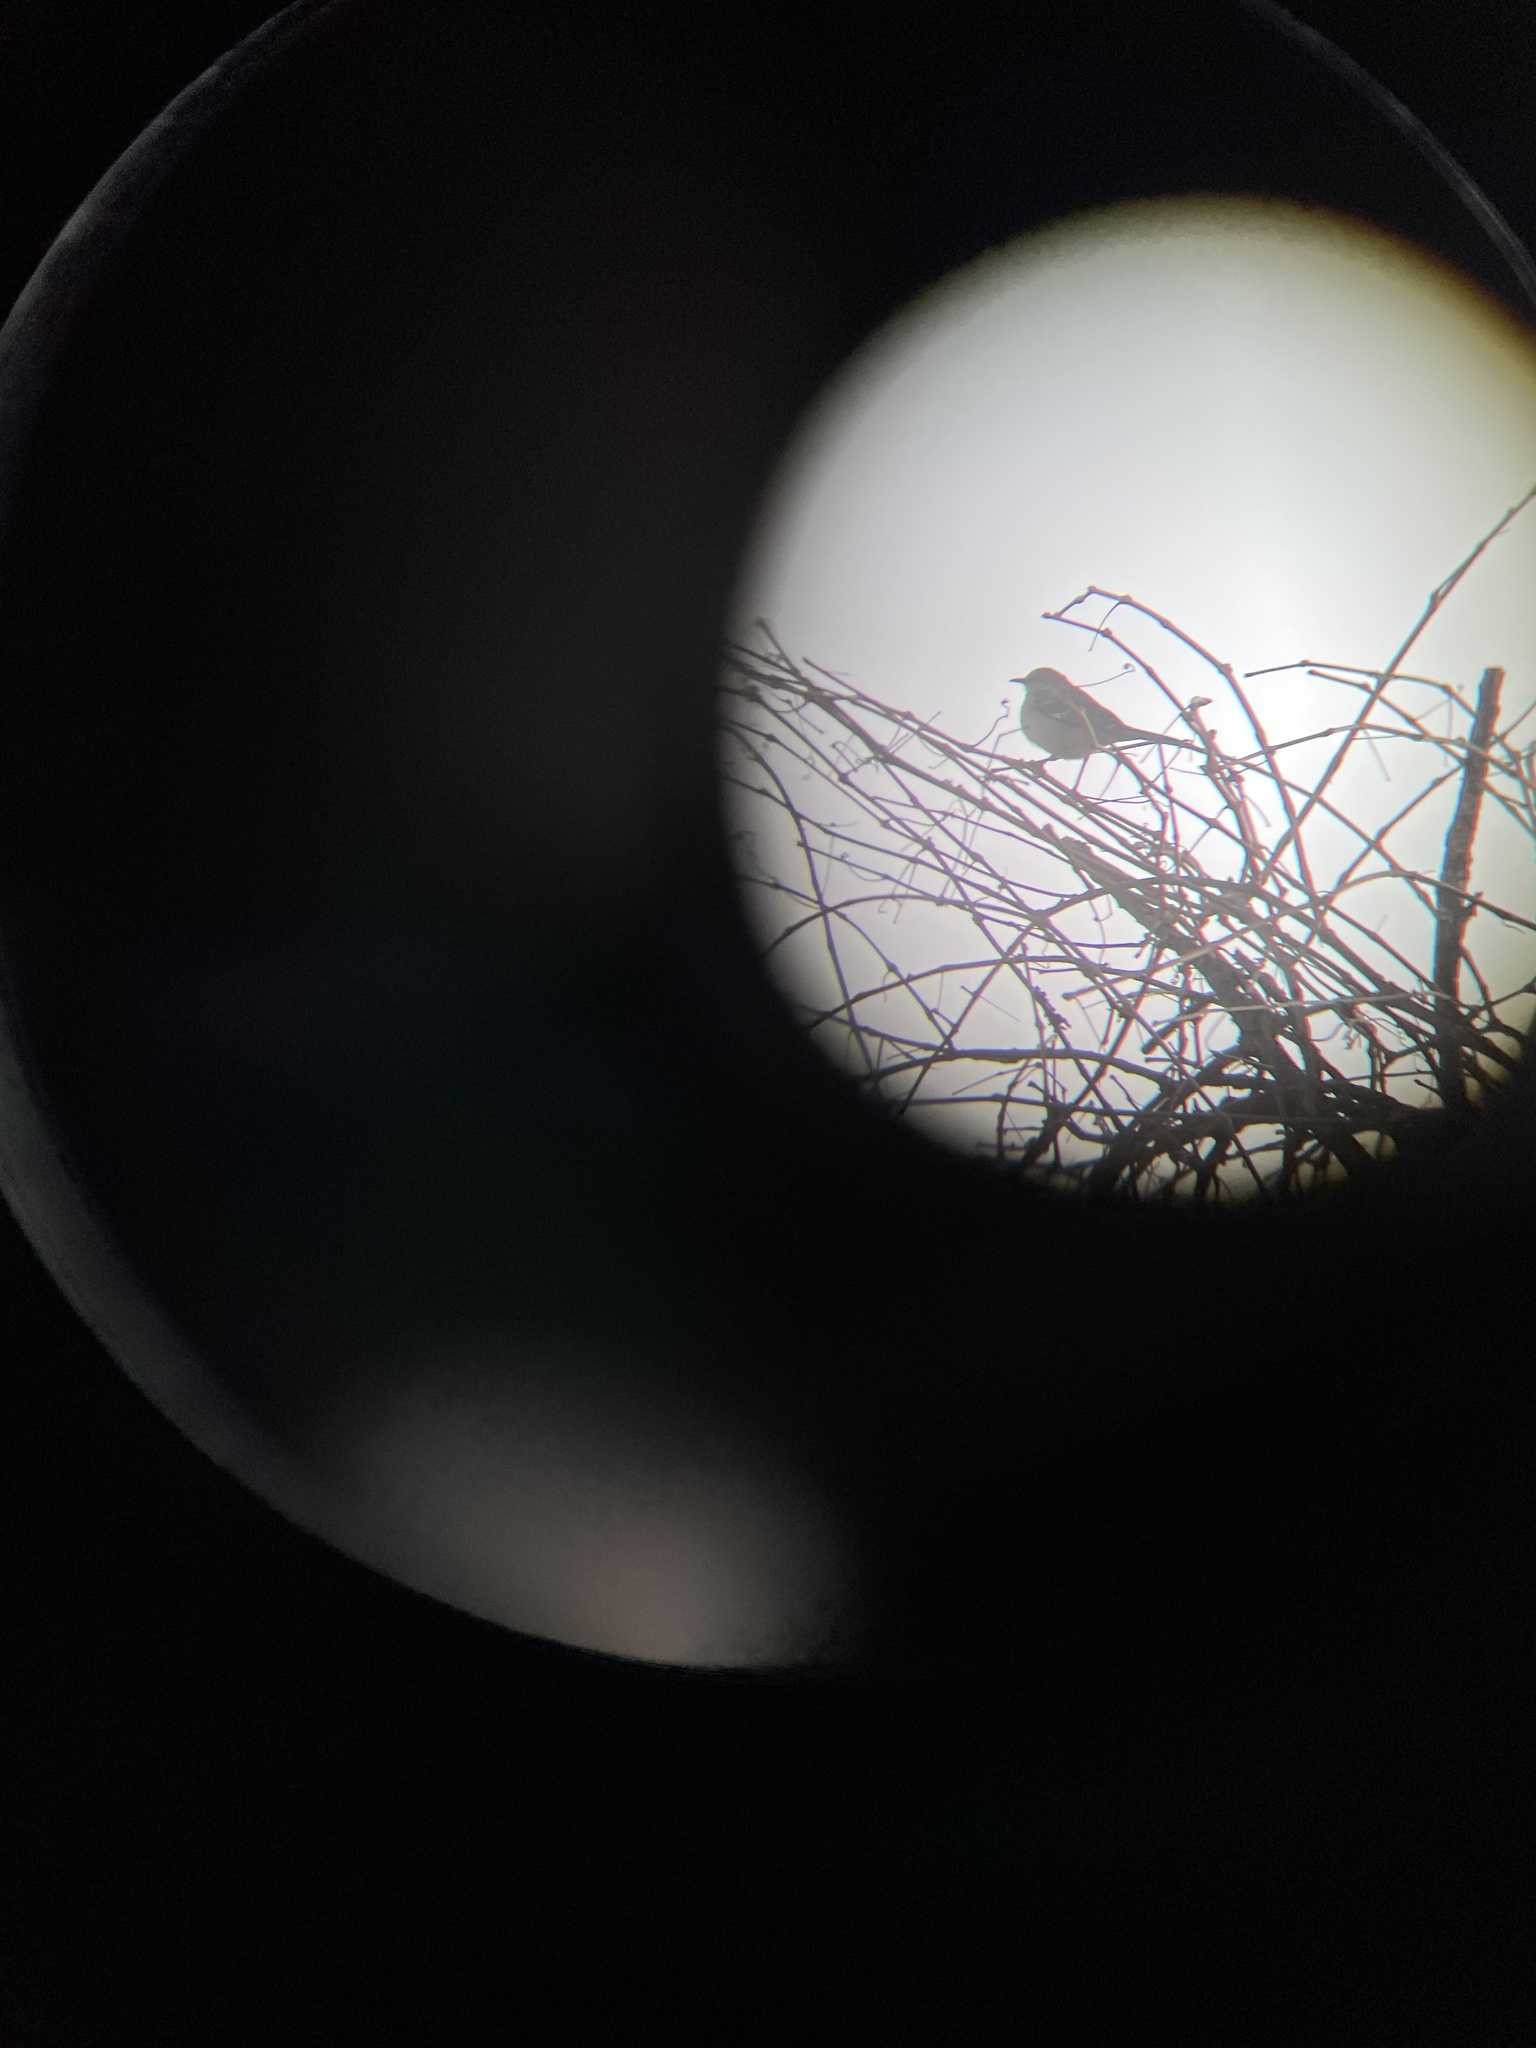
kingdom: Animalia
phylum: Chordata
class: Aves
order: Passeriformes
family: Mimidae
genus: Mimus
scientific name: Mimus polyglottos
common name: Northern mockingbird
